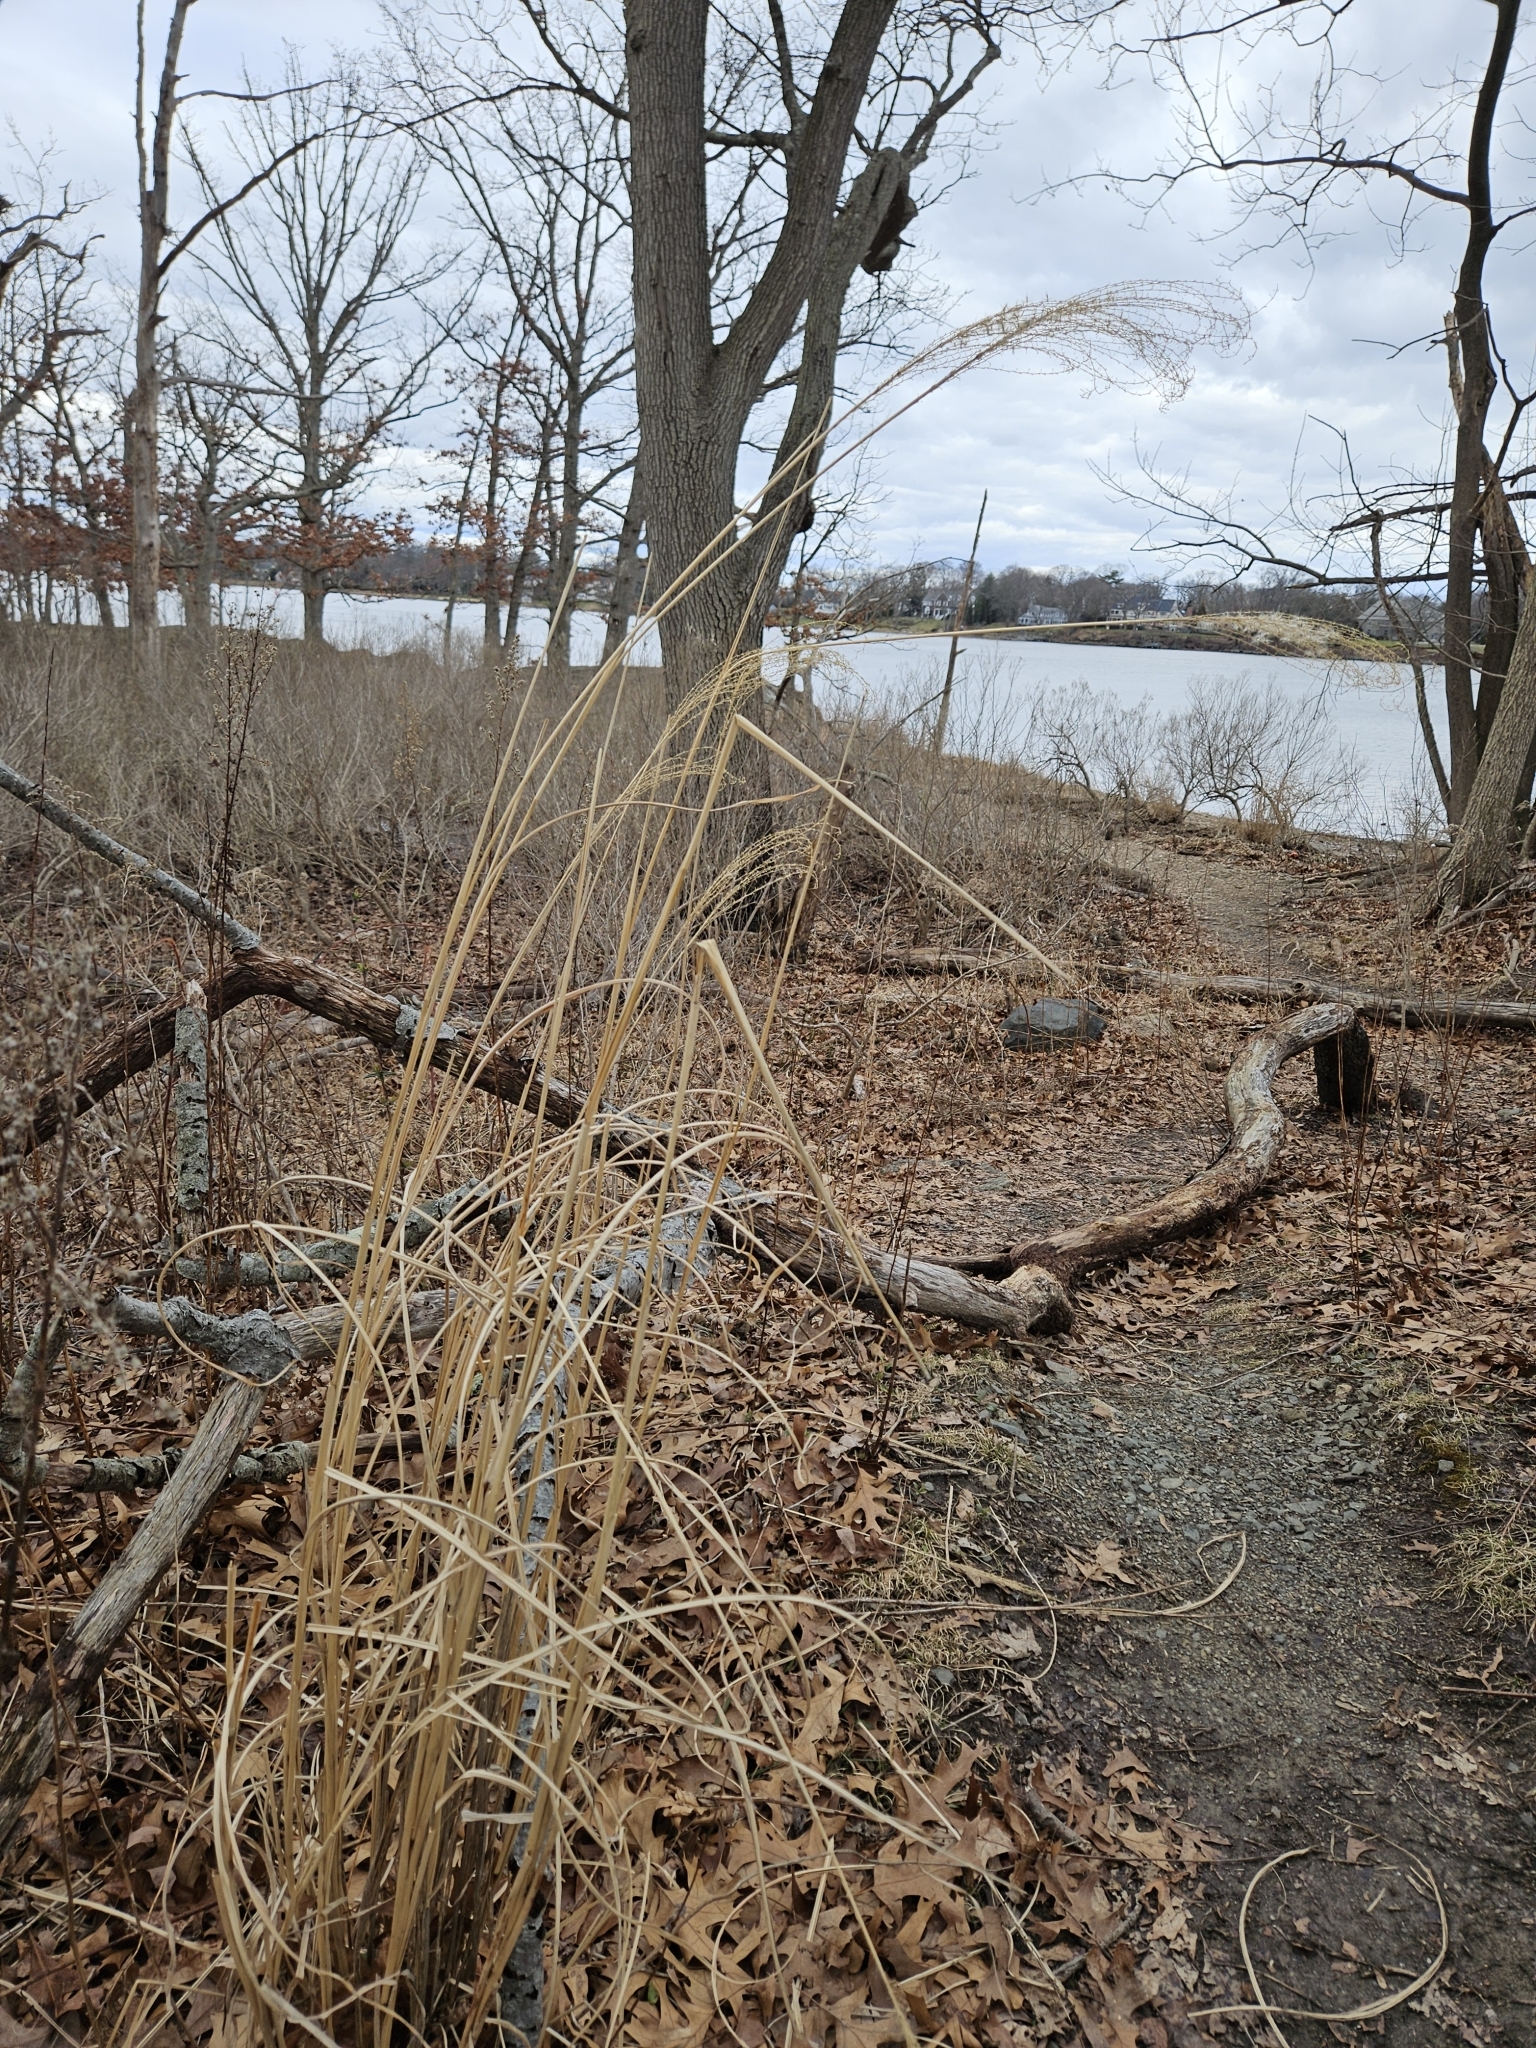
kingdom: Plantae
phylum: Tracheophyta
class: Liliopsida
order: Poales
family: Poaceae
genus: Miscanthus
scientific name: Miscanthus sinensis
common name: Chinese silvergrass
